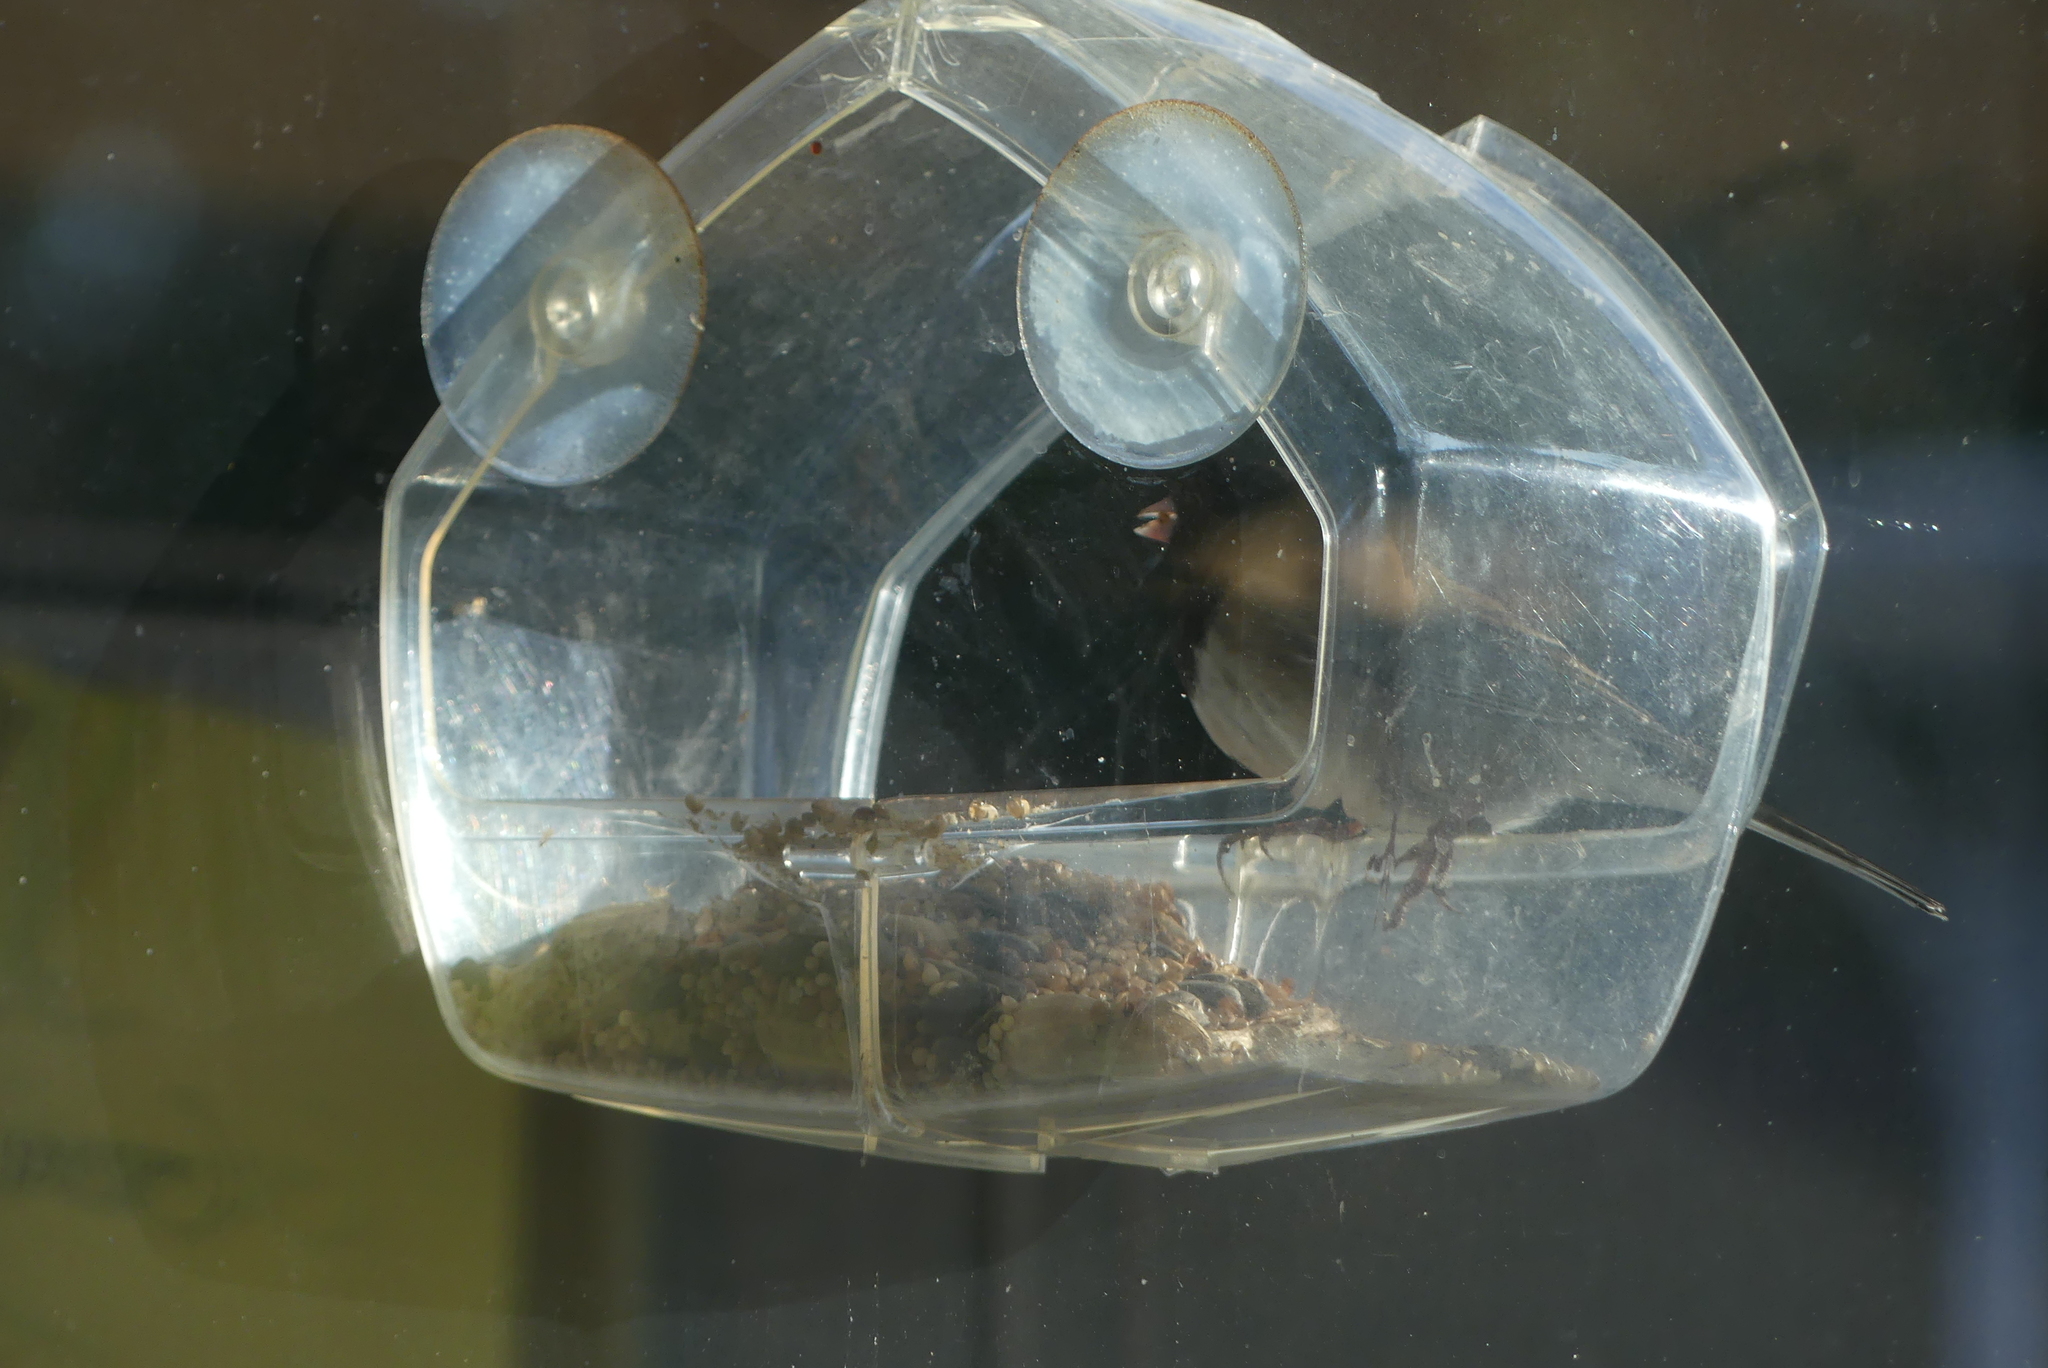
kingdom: Animalia
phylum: Chordata
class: Aves
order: Passeriformes
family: Passerellidae
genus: Junco
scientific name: Junco hyemalis
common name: Dark-eyed junco
